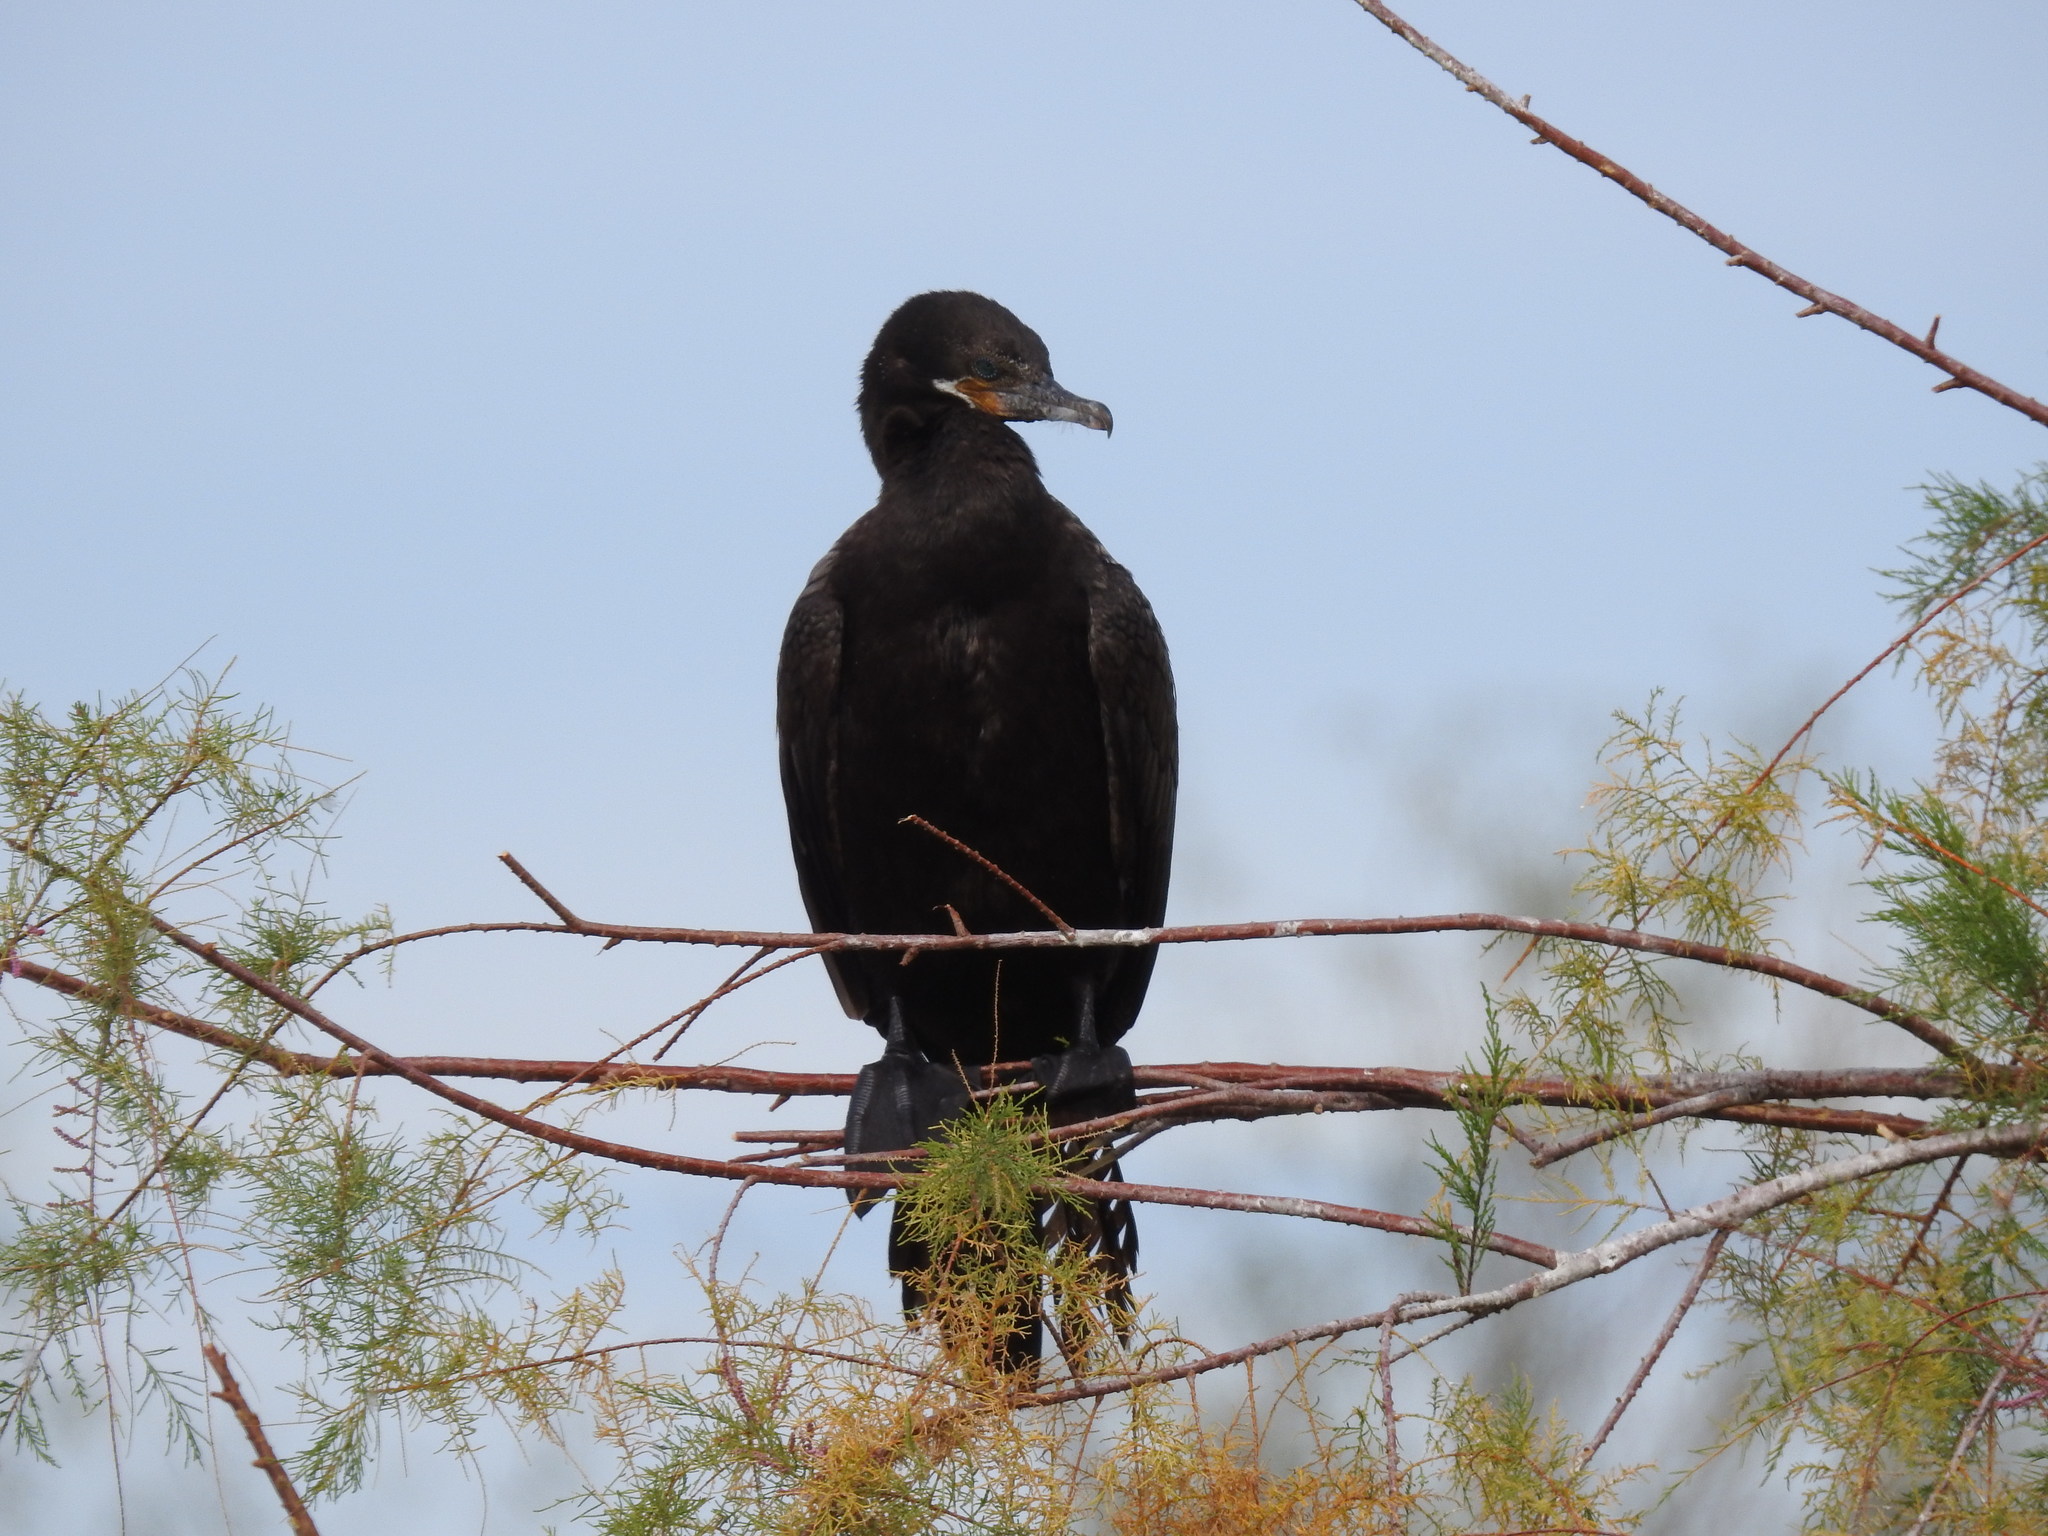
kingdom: Animalia
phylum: Chordata
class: Aves
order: Suliformes
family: Phalacrocoracidae
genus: Phalacrocorax
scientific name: Phalacrocorax brasilianus
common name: Neotropic cormorant
